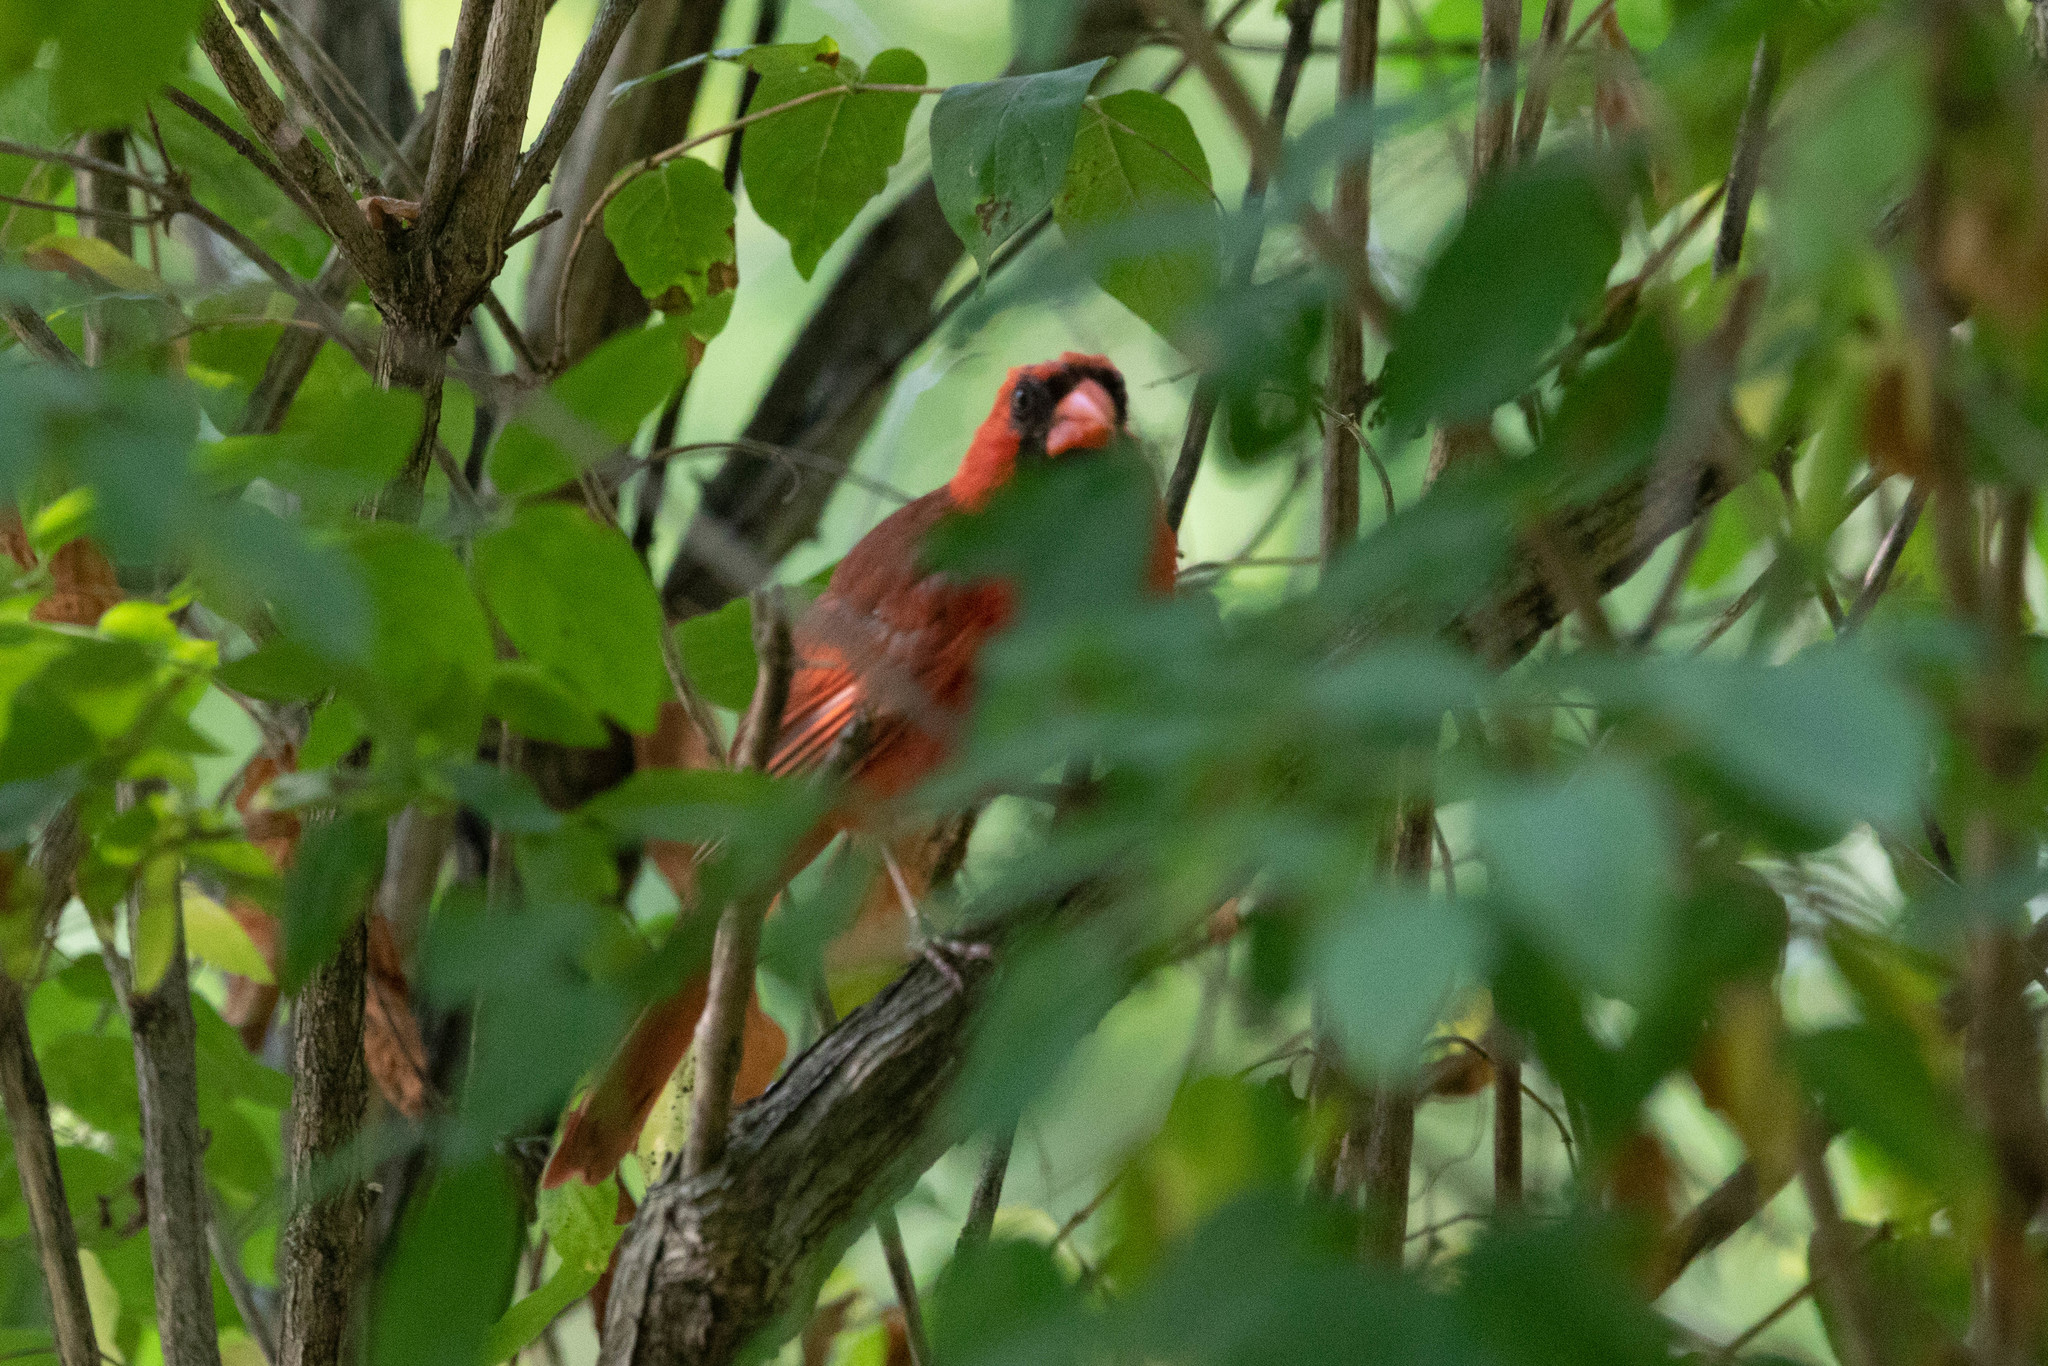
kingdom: Animalia
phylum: Chordata
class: Aves
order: Passeriformes
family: Cardinalidae
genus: Cardinalis
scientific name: Cardinalis cardinalis
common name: Northern cardinal
